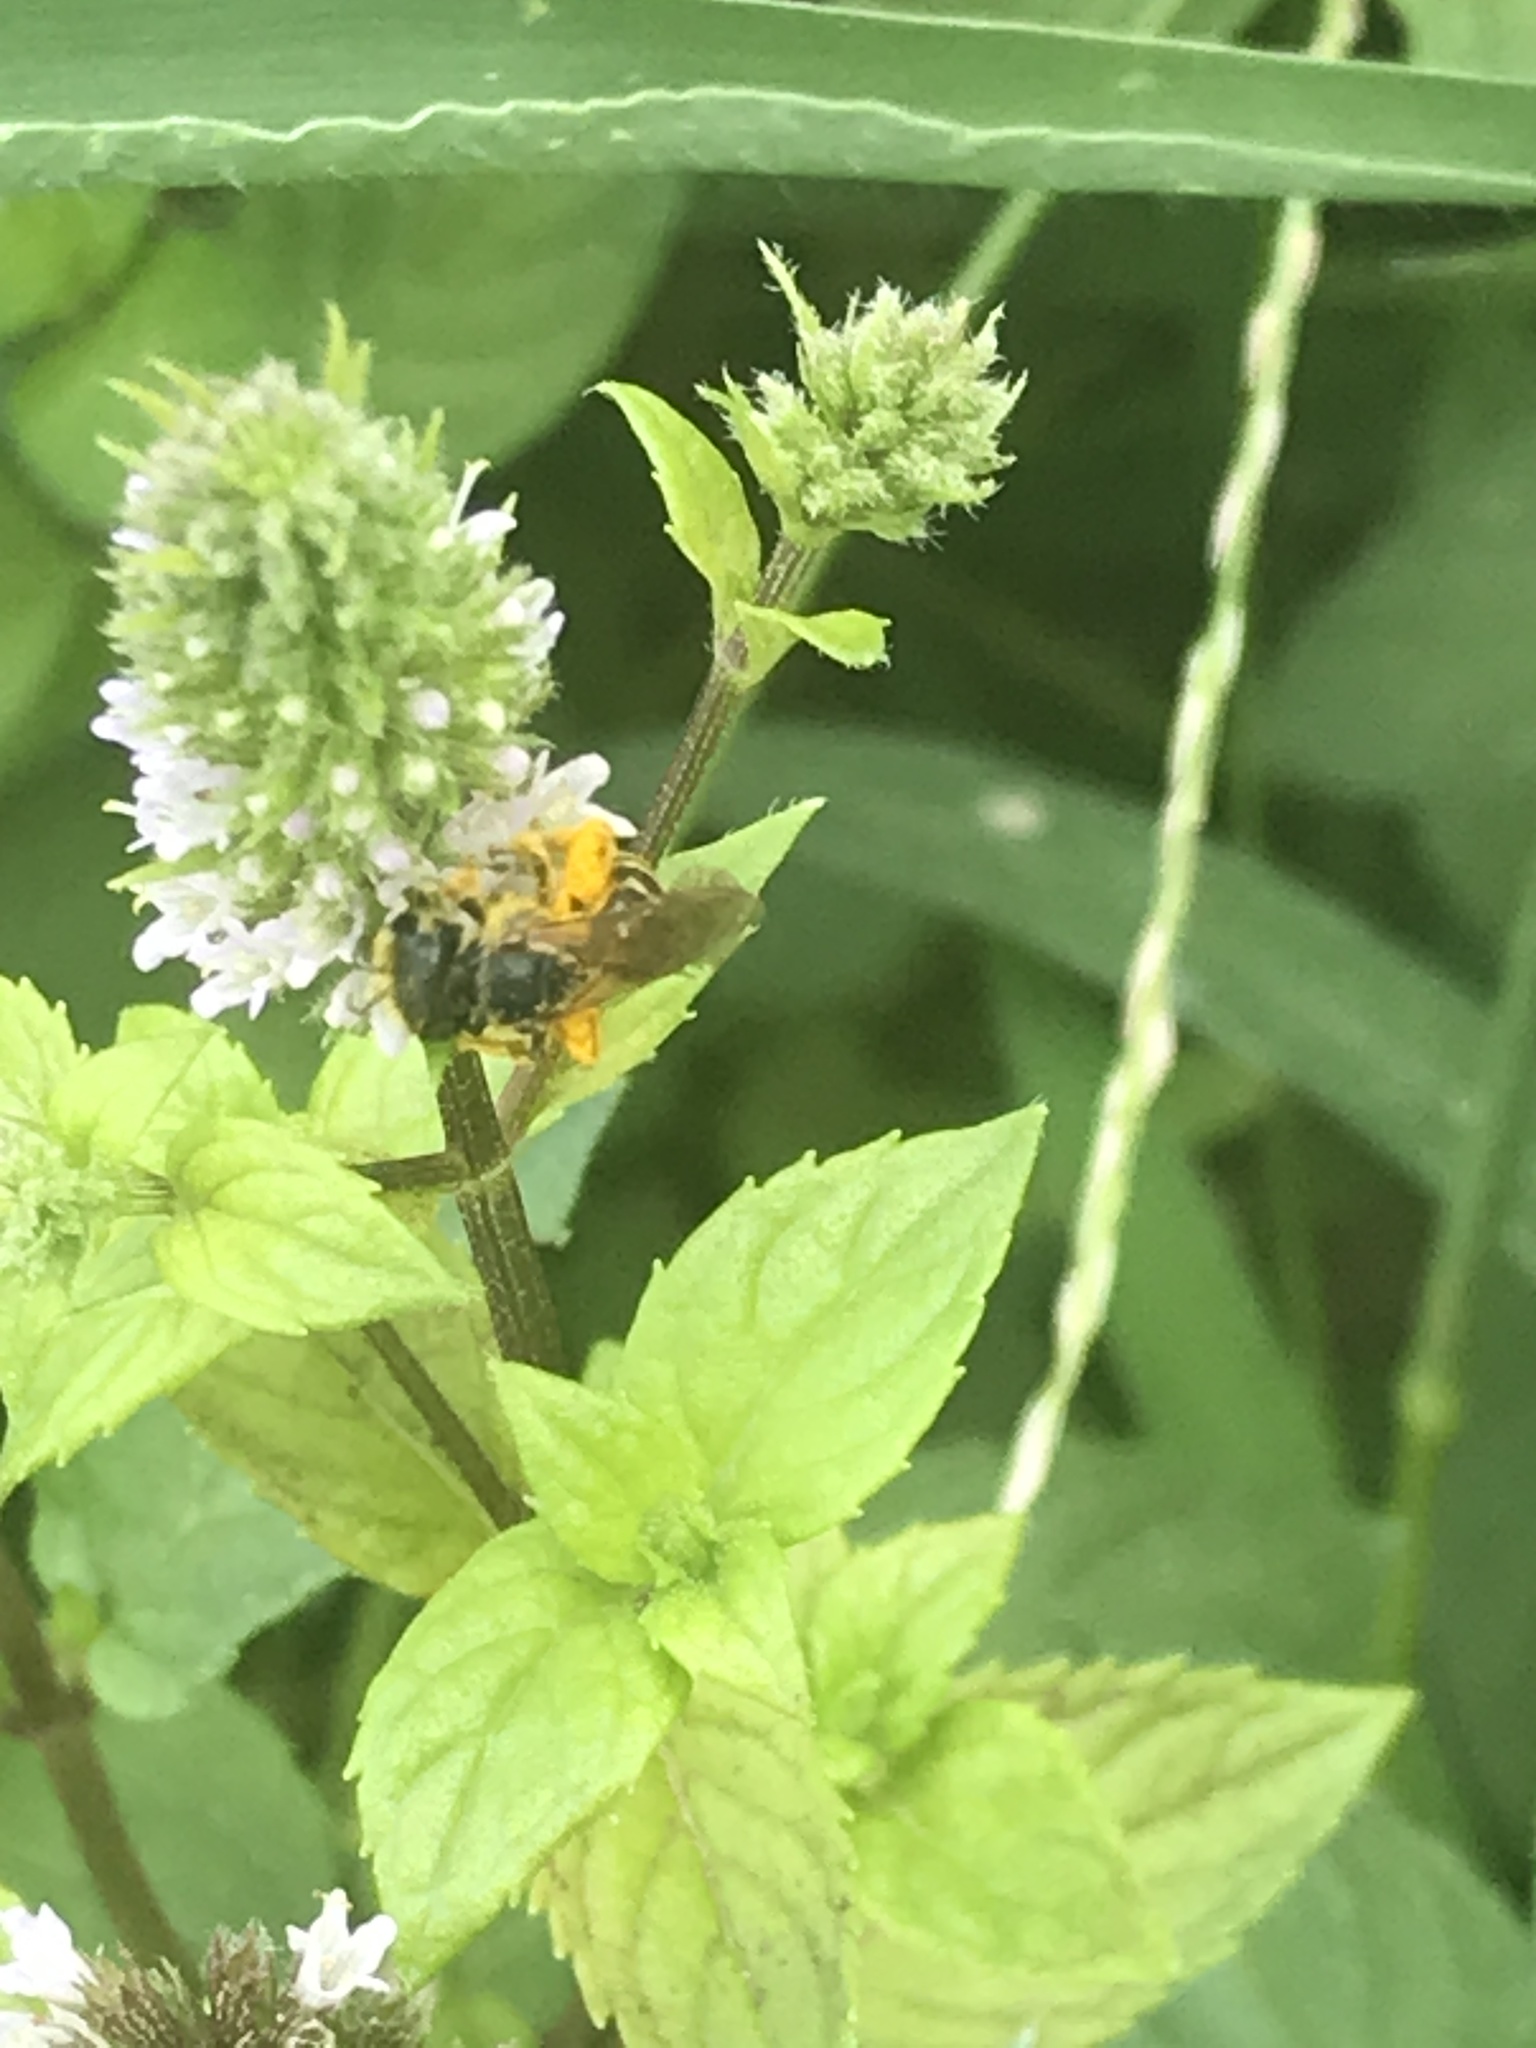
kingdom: Animalia
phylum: Arthropoda
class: Insecta
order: Hymenoptera
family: Halictidae
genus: Halictus
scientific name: Halictus ligatus
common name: Ligated furrow bee
